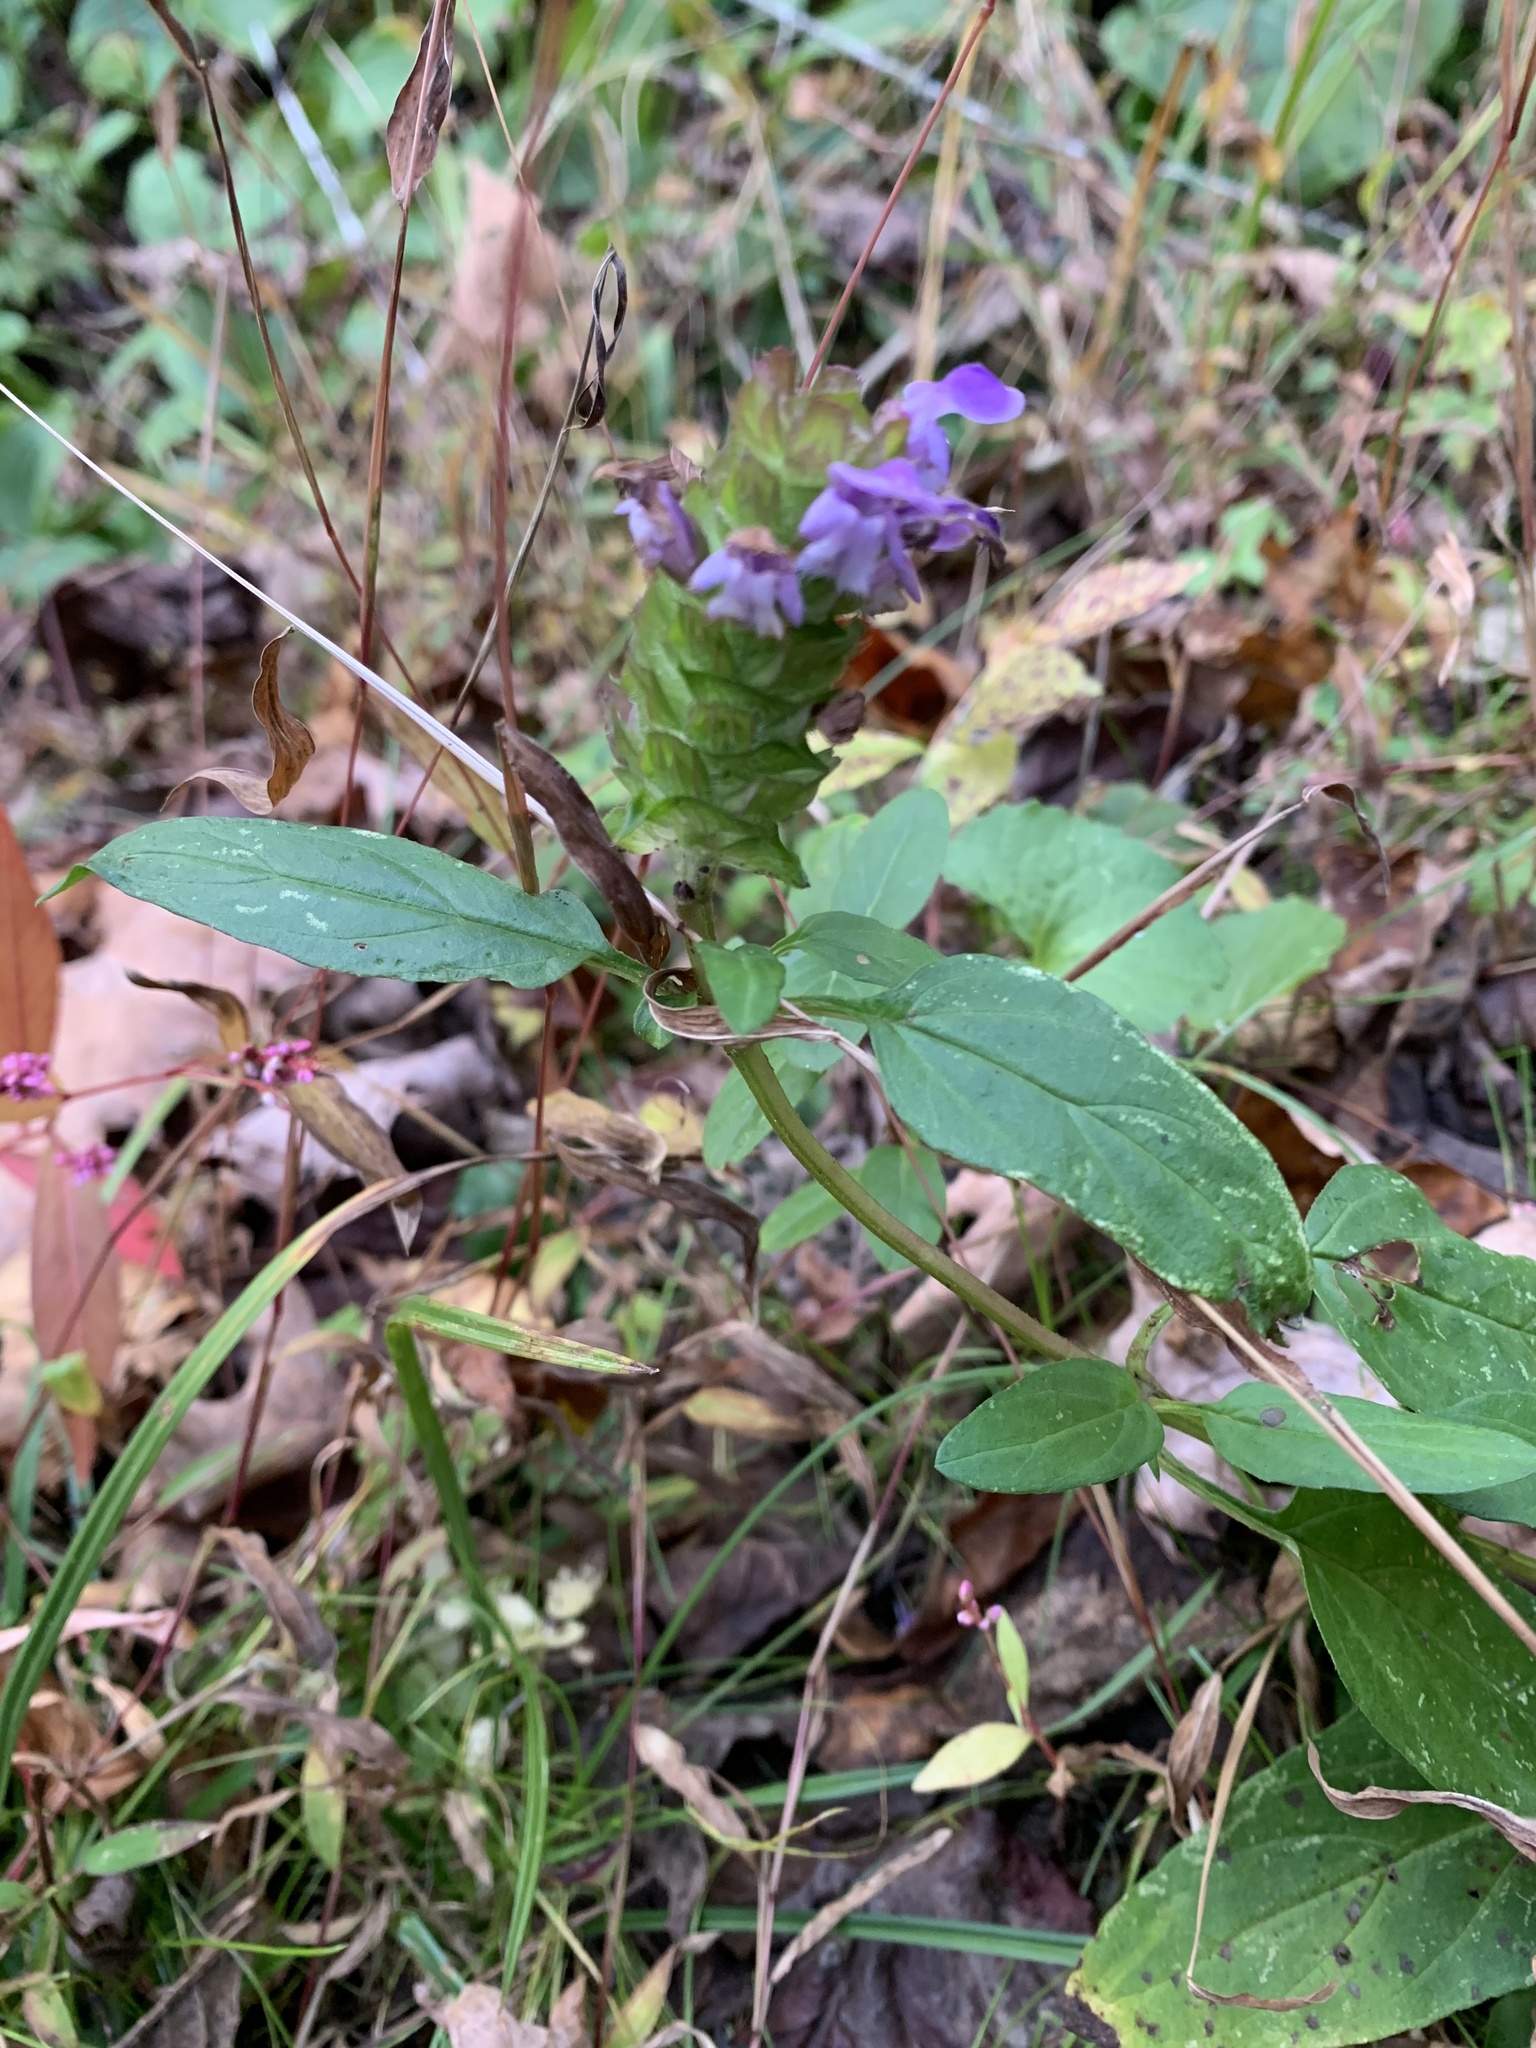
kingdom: Plantae
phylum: Tracheophyta
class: Magnoliopsida
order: Lamiales
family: Lamiaceae
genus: Prunella
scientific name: Prunella vulgaris
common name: Heal-all
